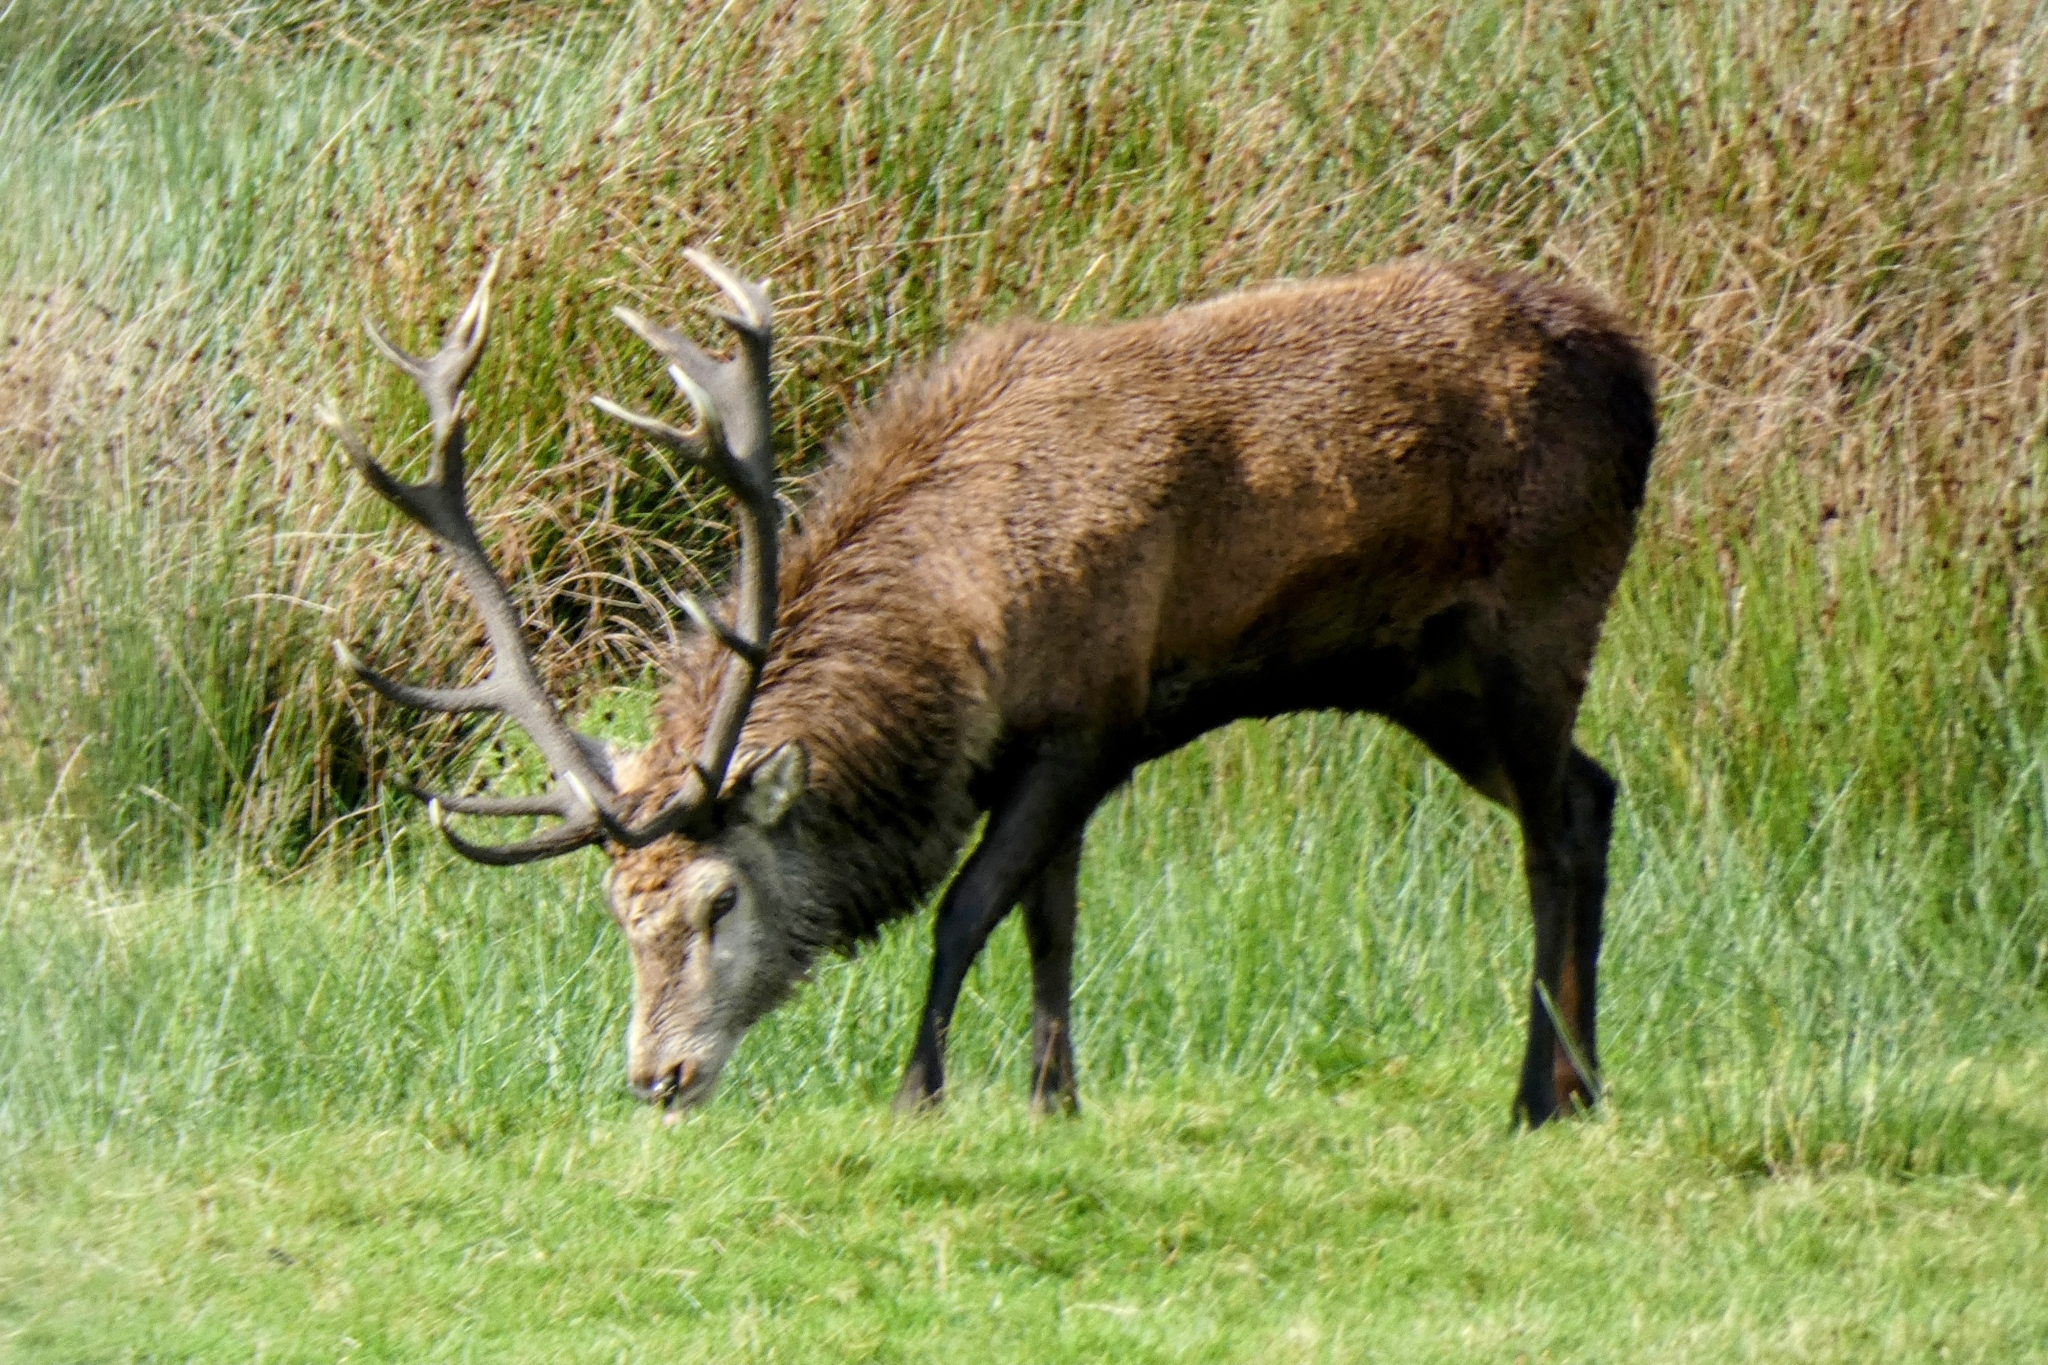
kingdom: Animalia
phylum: Chordata
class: Mammalia
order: Artiodactyla
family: Cervidae
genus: Cervus
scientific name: Cervus elaphus
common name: Red deer
